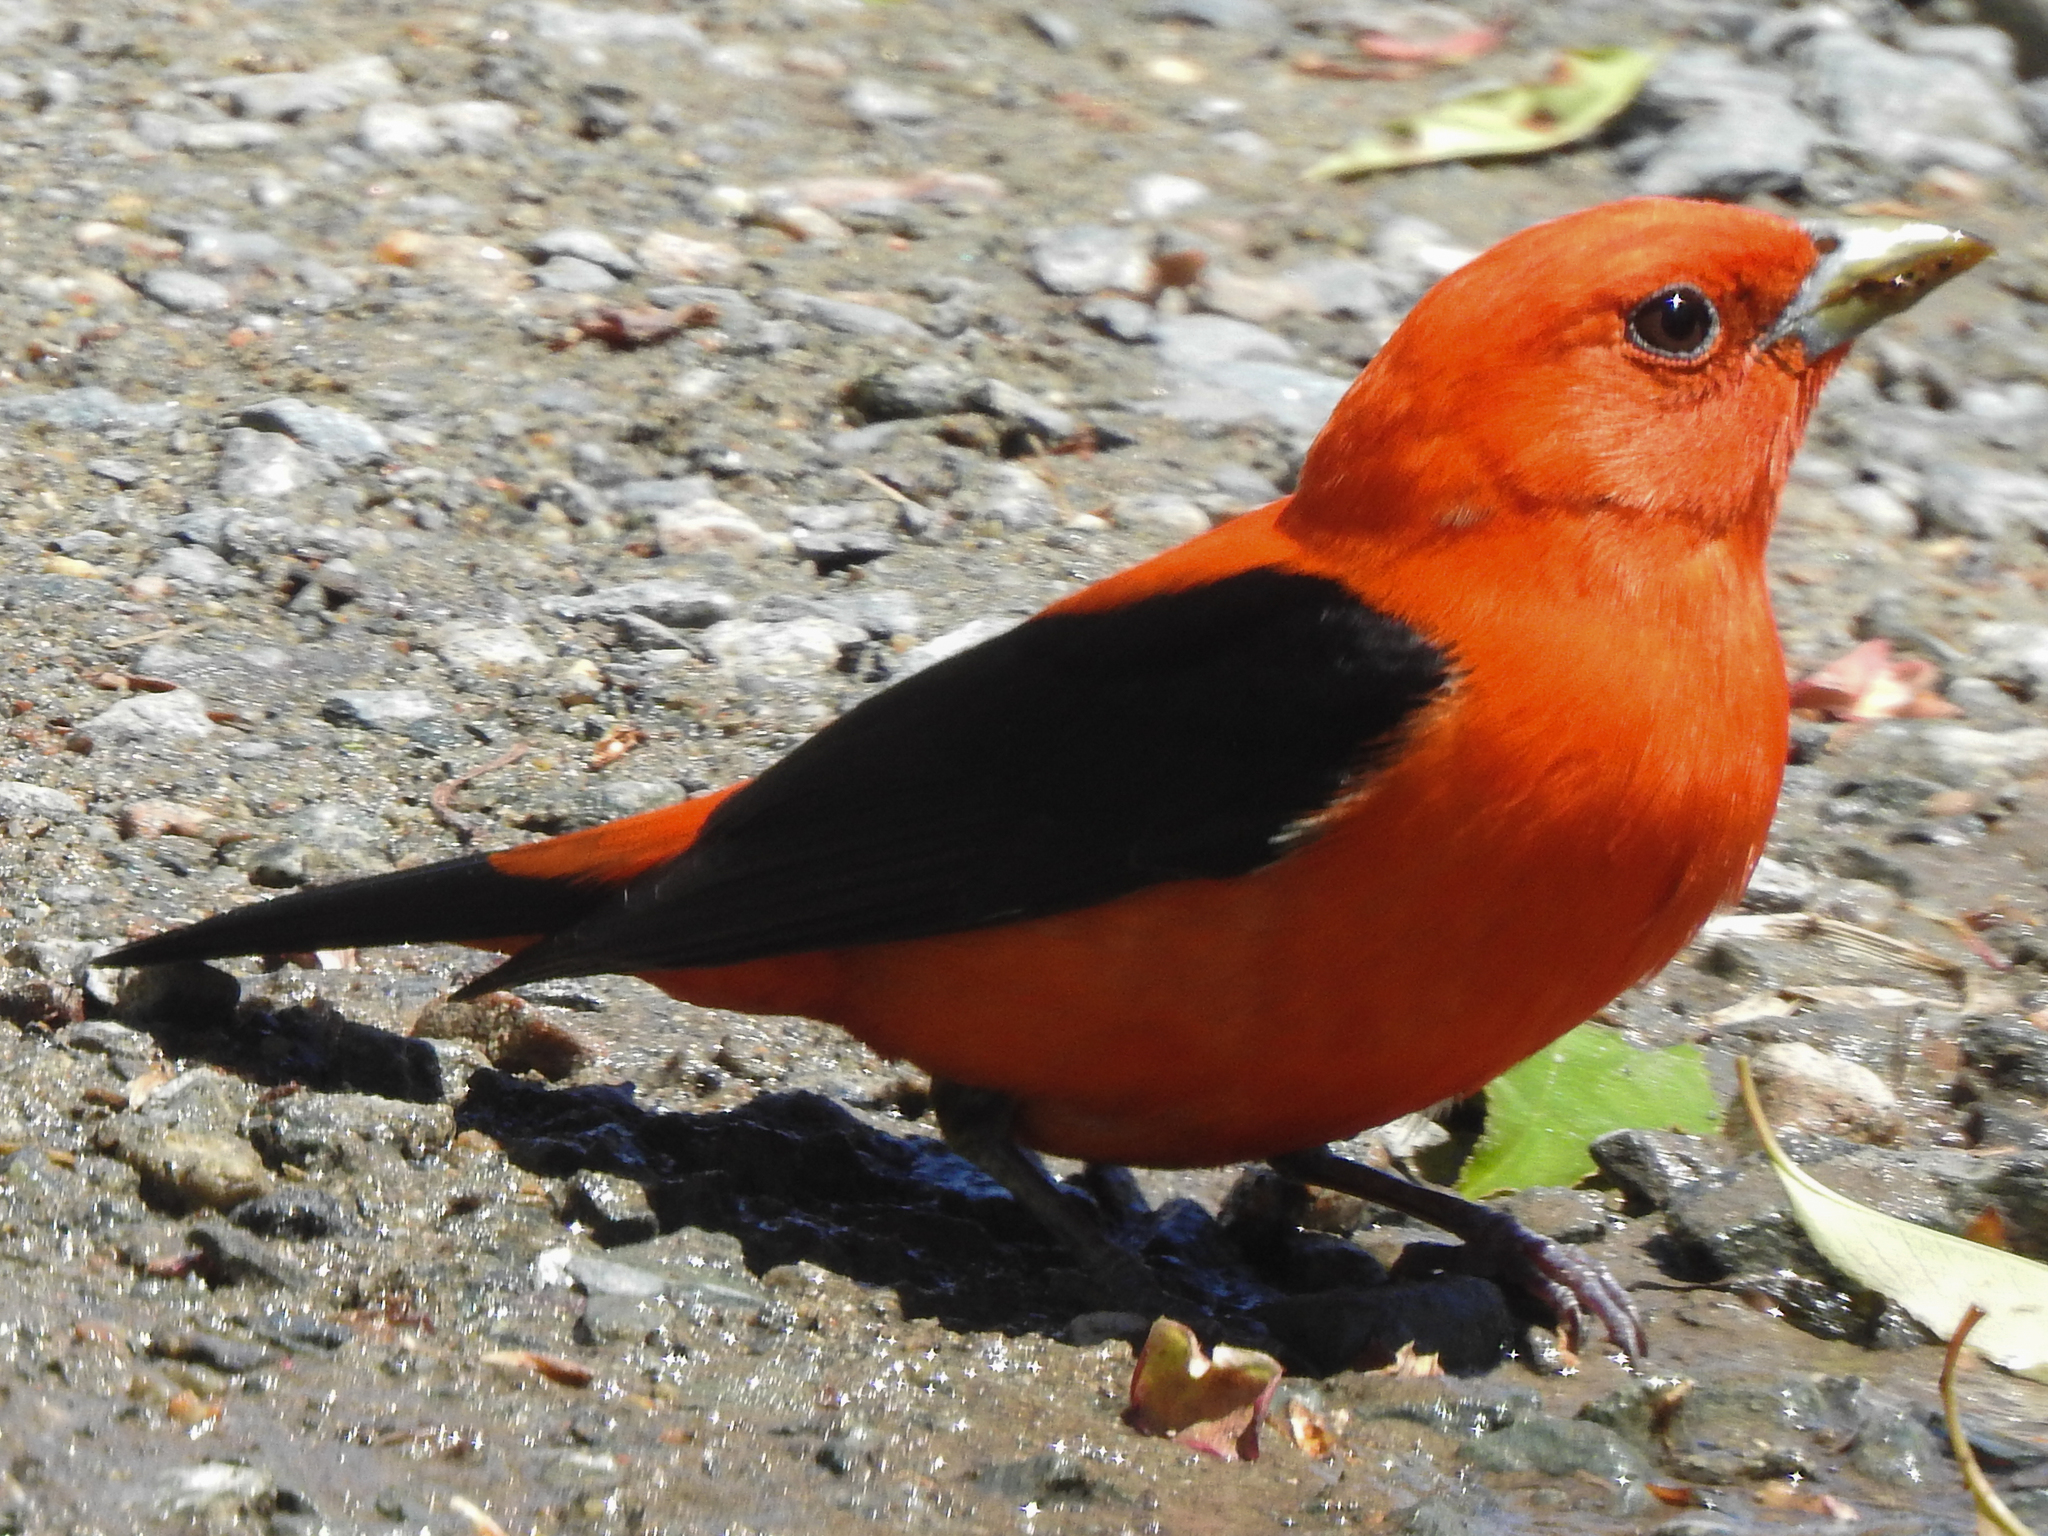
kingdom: Animalia
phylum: Chordata
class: Aves
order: Passeriformes
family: Cardinalidae
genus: Piranga
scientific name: Piranga olivacea
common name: Scarlet tanager
